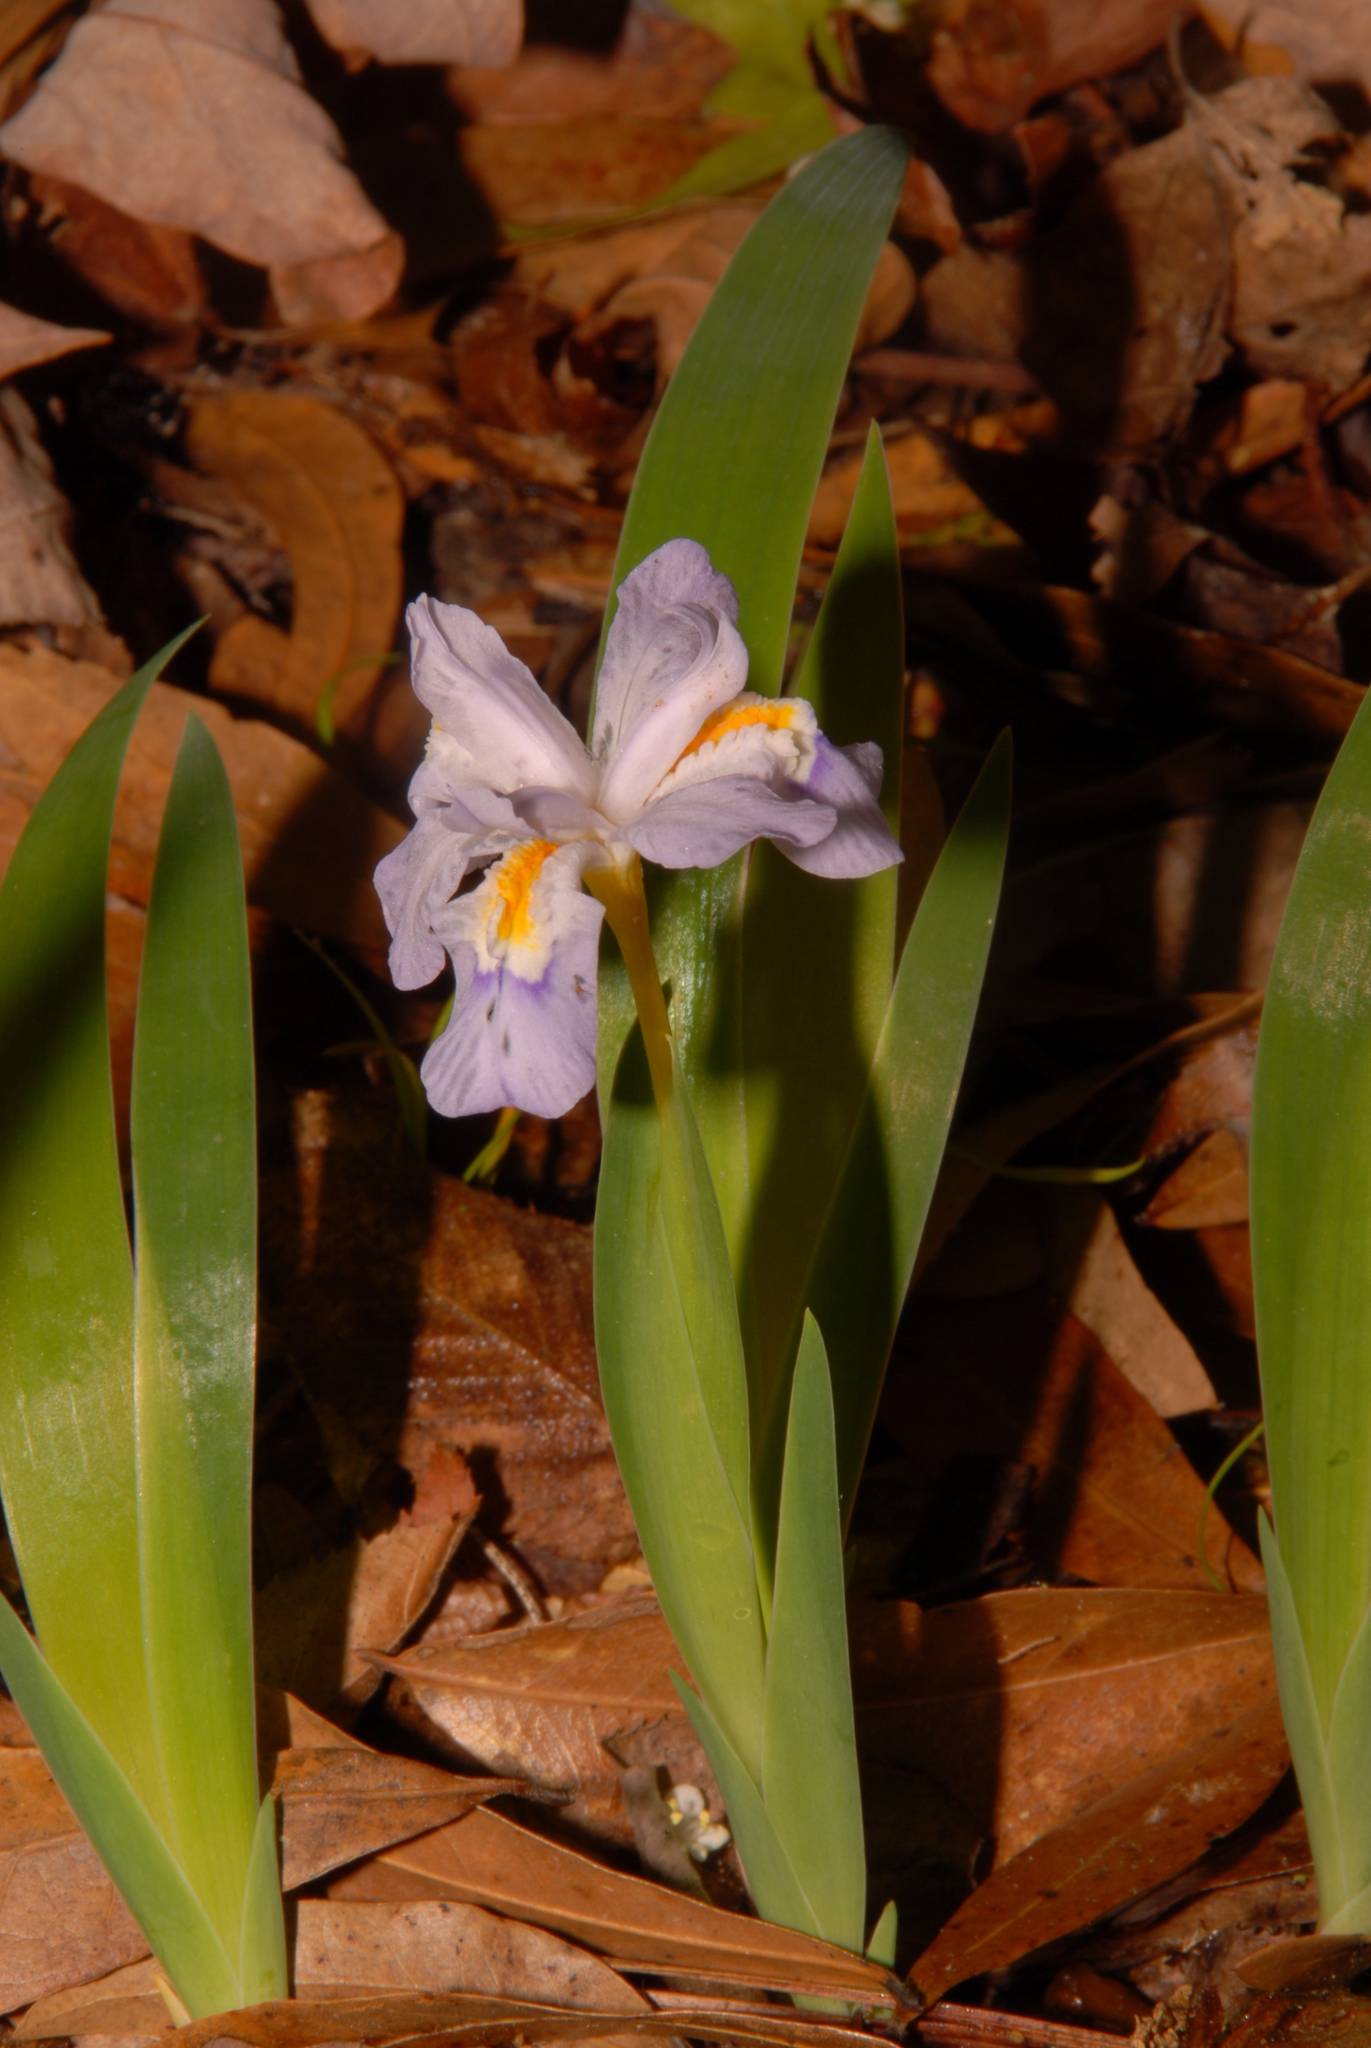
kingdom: Plantae
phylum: Tracheophyta
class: Liliopsida
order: Asparagales
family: Iridaceae
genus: Iris
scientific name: Iris cristata
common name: Crested iris
